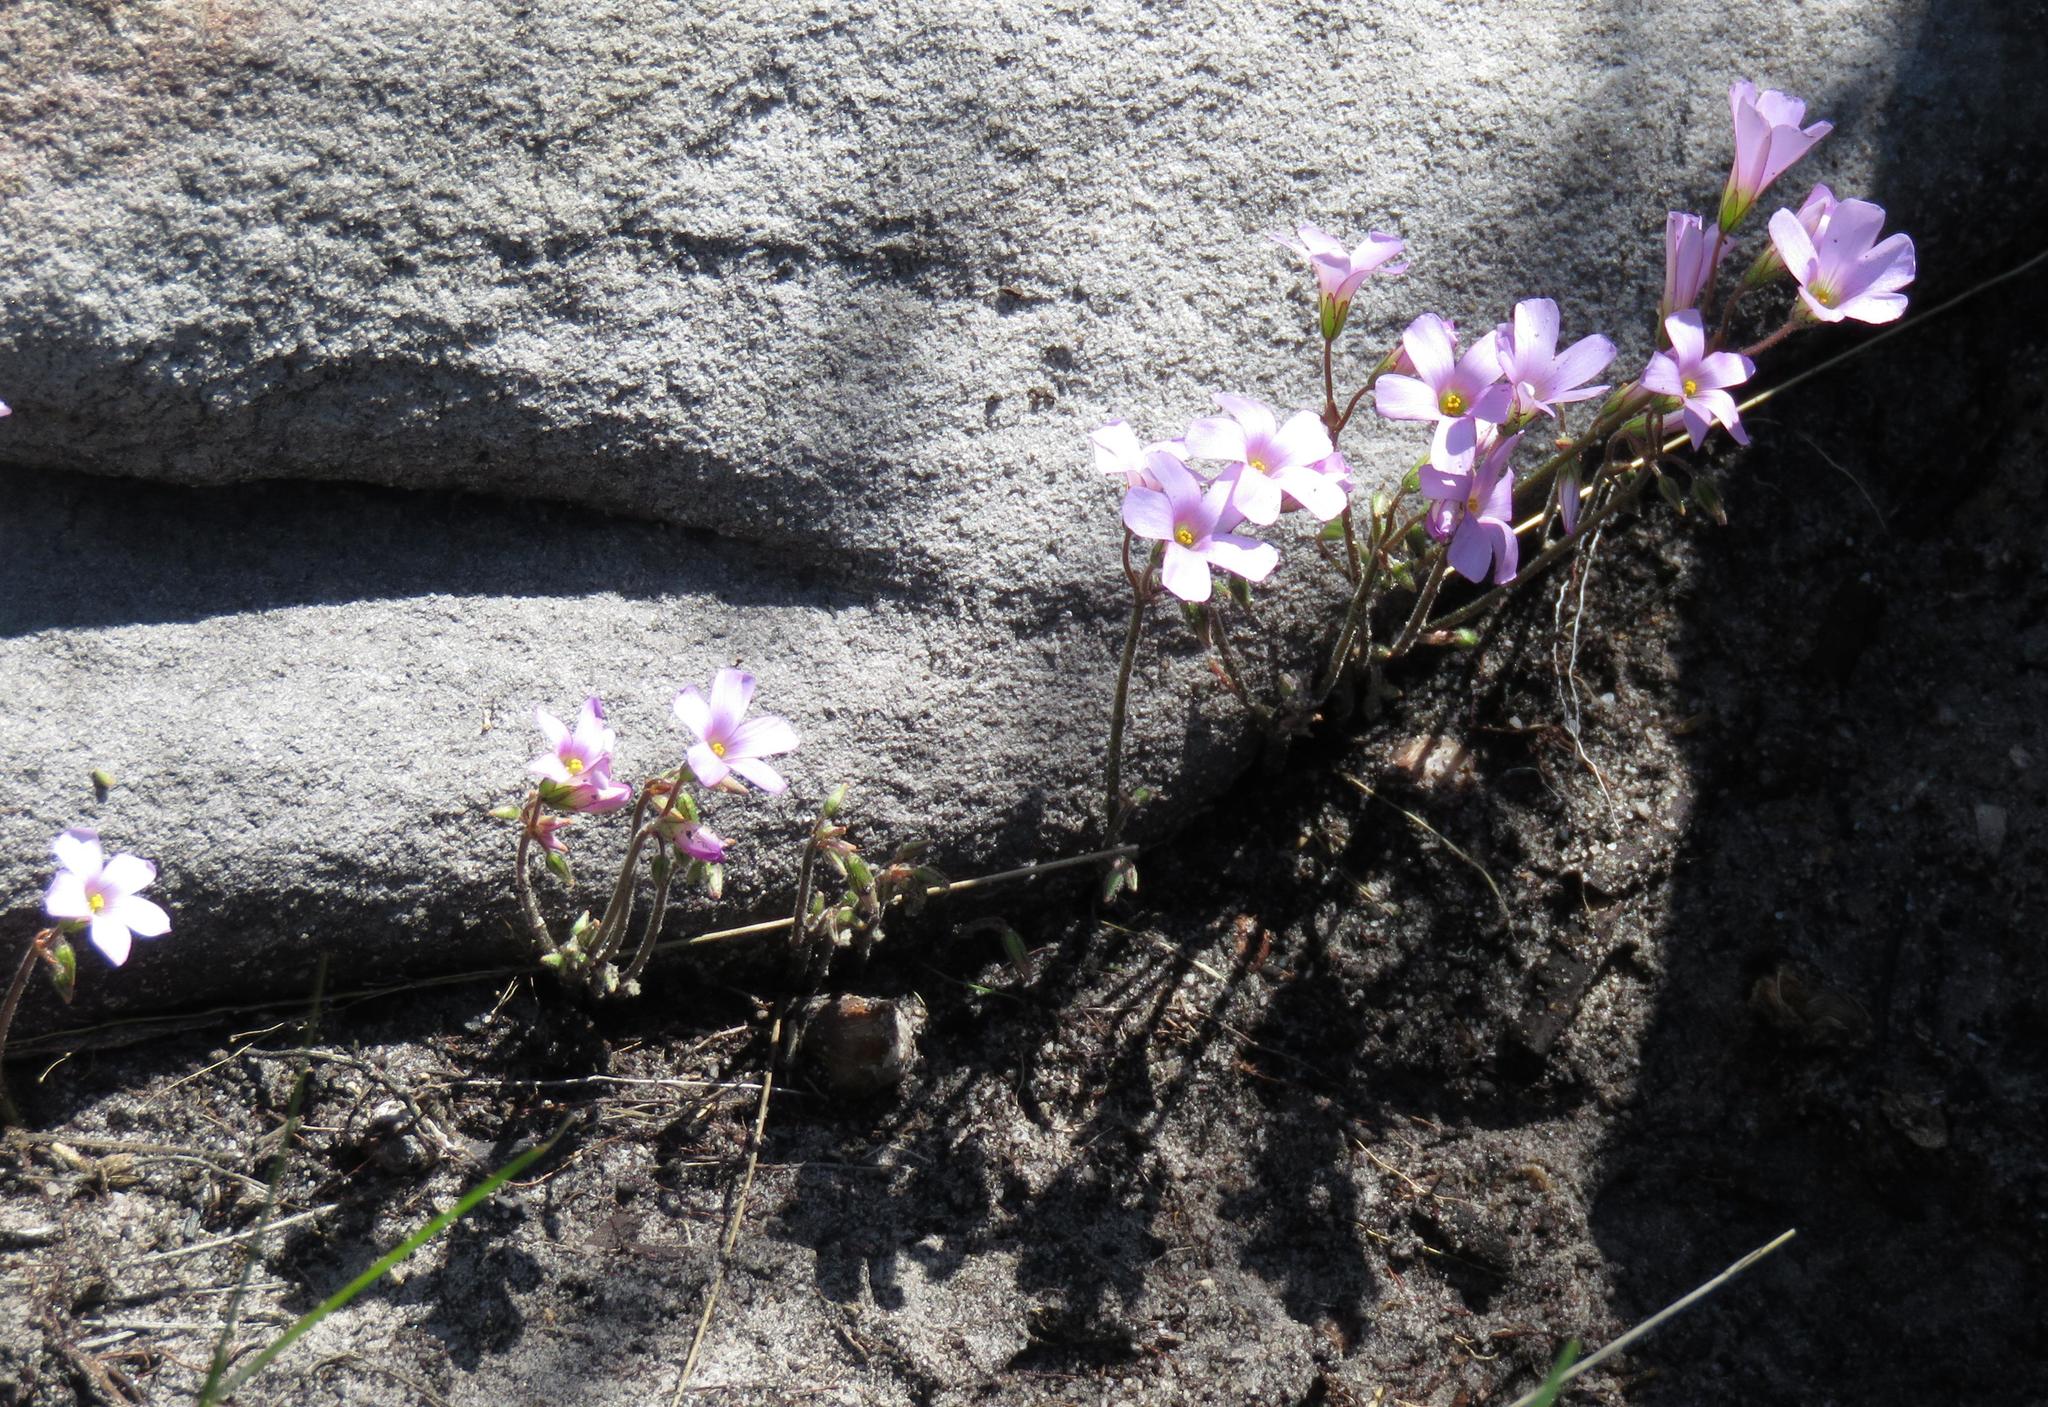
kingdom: Plantae
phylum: Tracheophyta
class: Magnoliopsida
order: Oxalidales
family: Oxalidaceae
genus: Oxalis
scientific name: Oxalis
